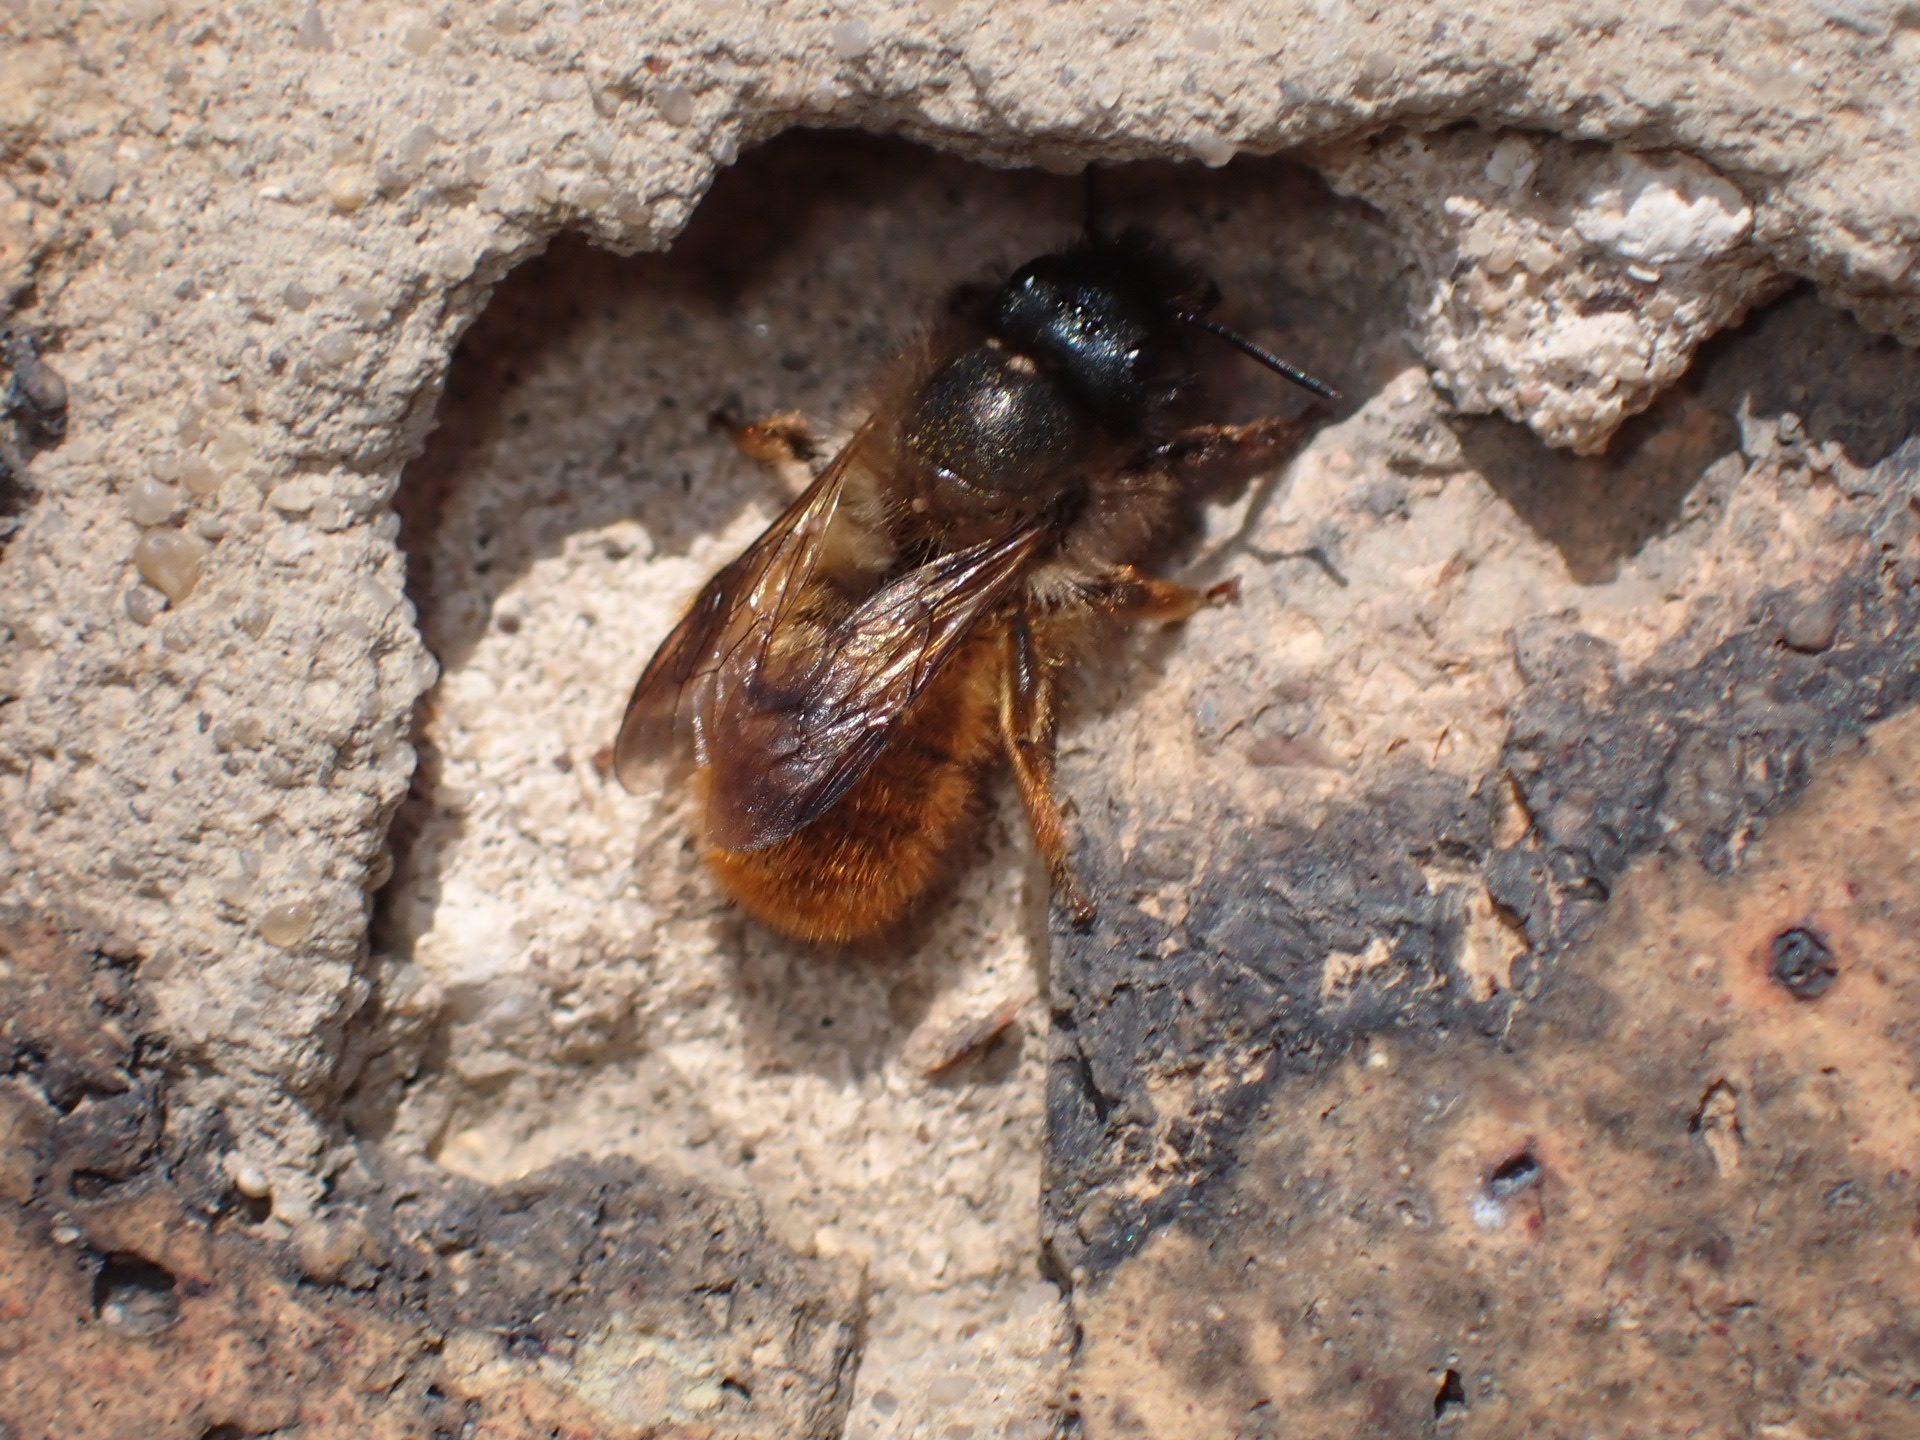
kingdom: Animalia
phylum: Arthropoda
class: Insecta
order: Hymenoptera
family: Megachilidae
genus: Osmia
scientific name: Osmia bicornis
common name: Red mason bee
